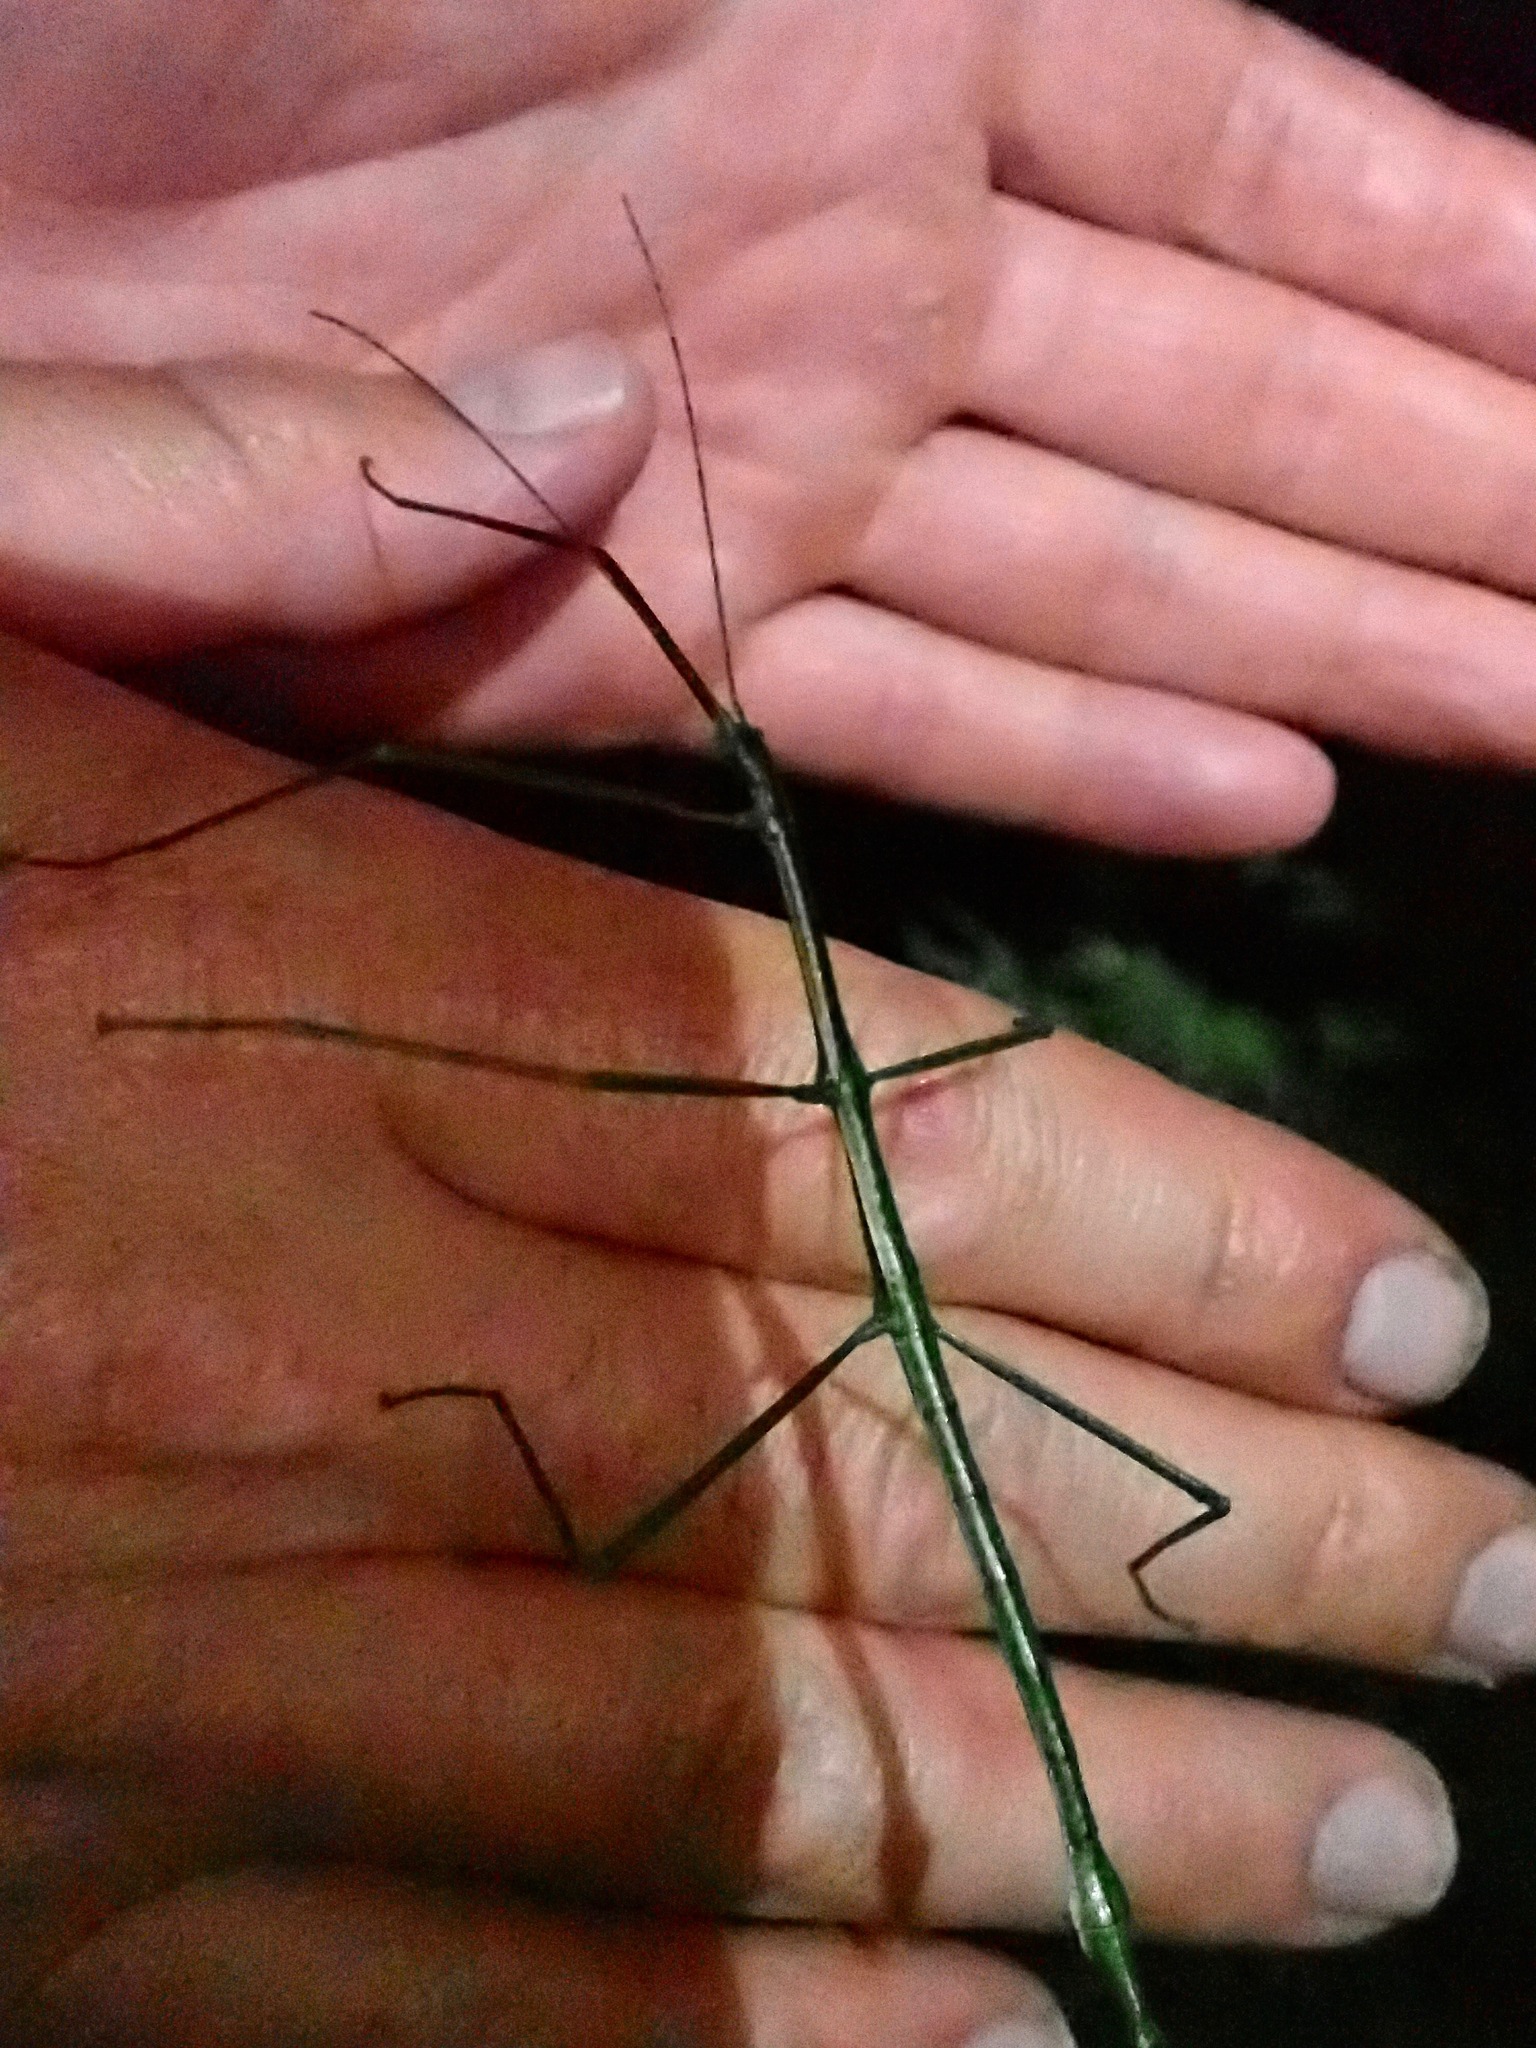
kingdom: Animalia
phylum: Arthropoda
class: Insecta
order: Phasmida
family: Phasmatidae
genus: Clitarchus
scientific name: Clitarchus hookeri
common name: Smooth stick insect
